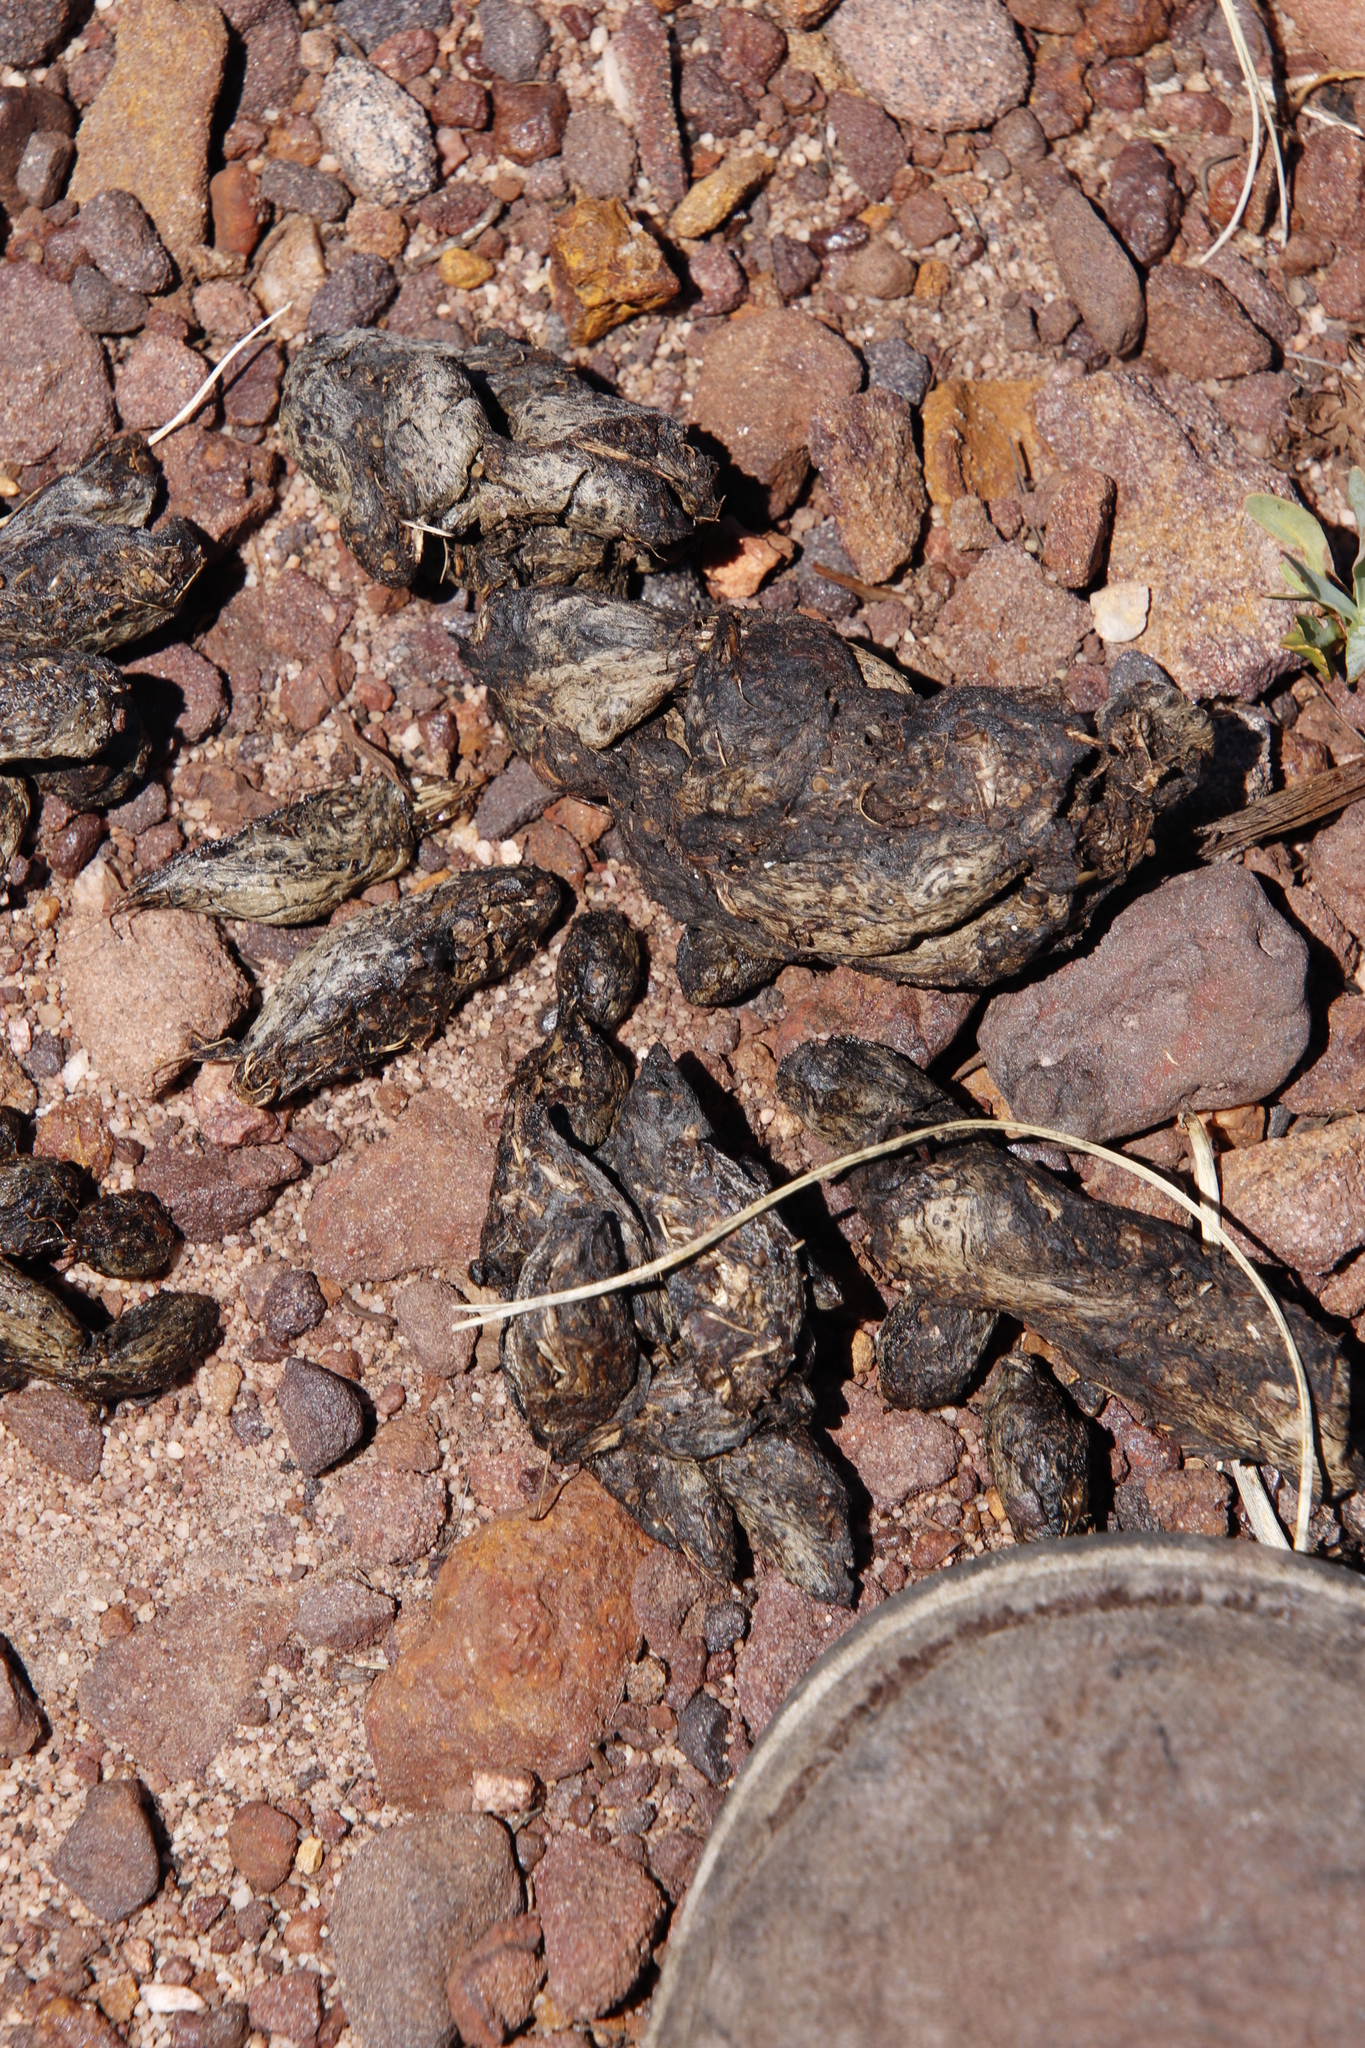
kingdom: Animalia
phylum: Chordata
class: Mammalia
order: Rodentia
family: Hystricidae
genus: Hystrix
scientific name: Hystrix africaeaustralis
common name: Cape porcupine
